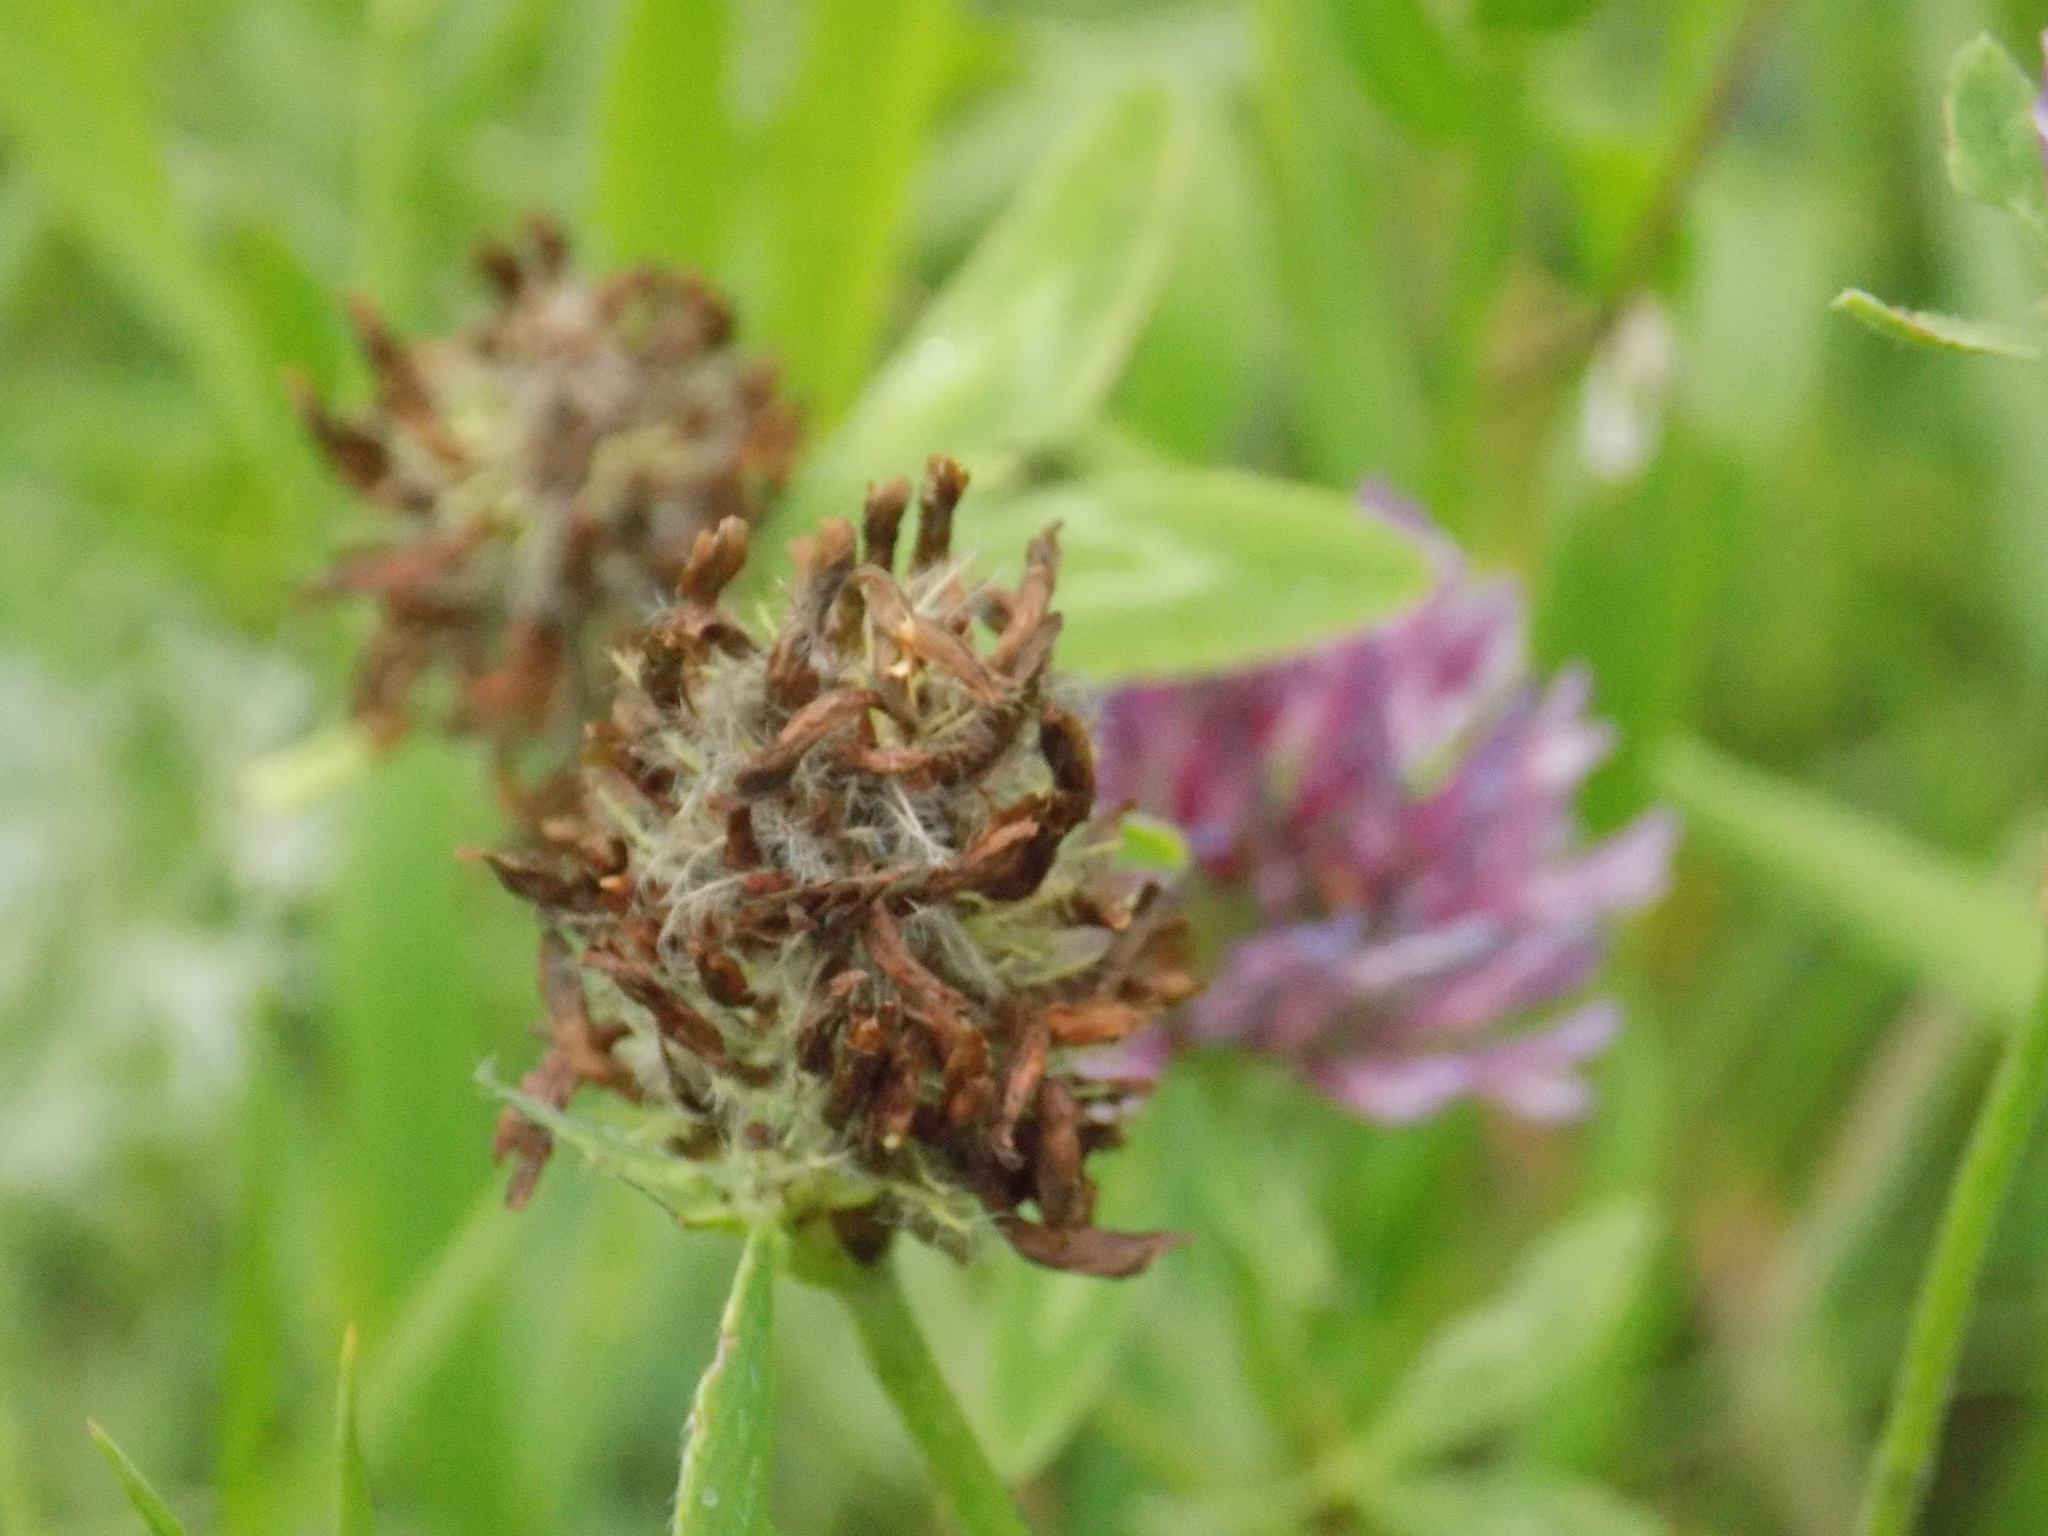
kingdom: Plantae
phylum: Tracheophyta
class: Magnoliopsida
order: Fabales
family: Fabaceae
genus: Trifolium
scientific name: Trifolium pratense
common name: Red clover
